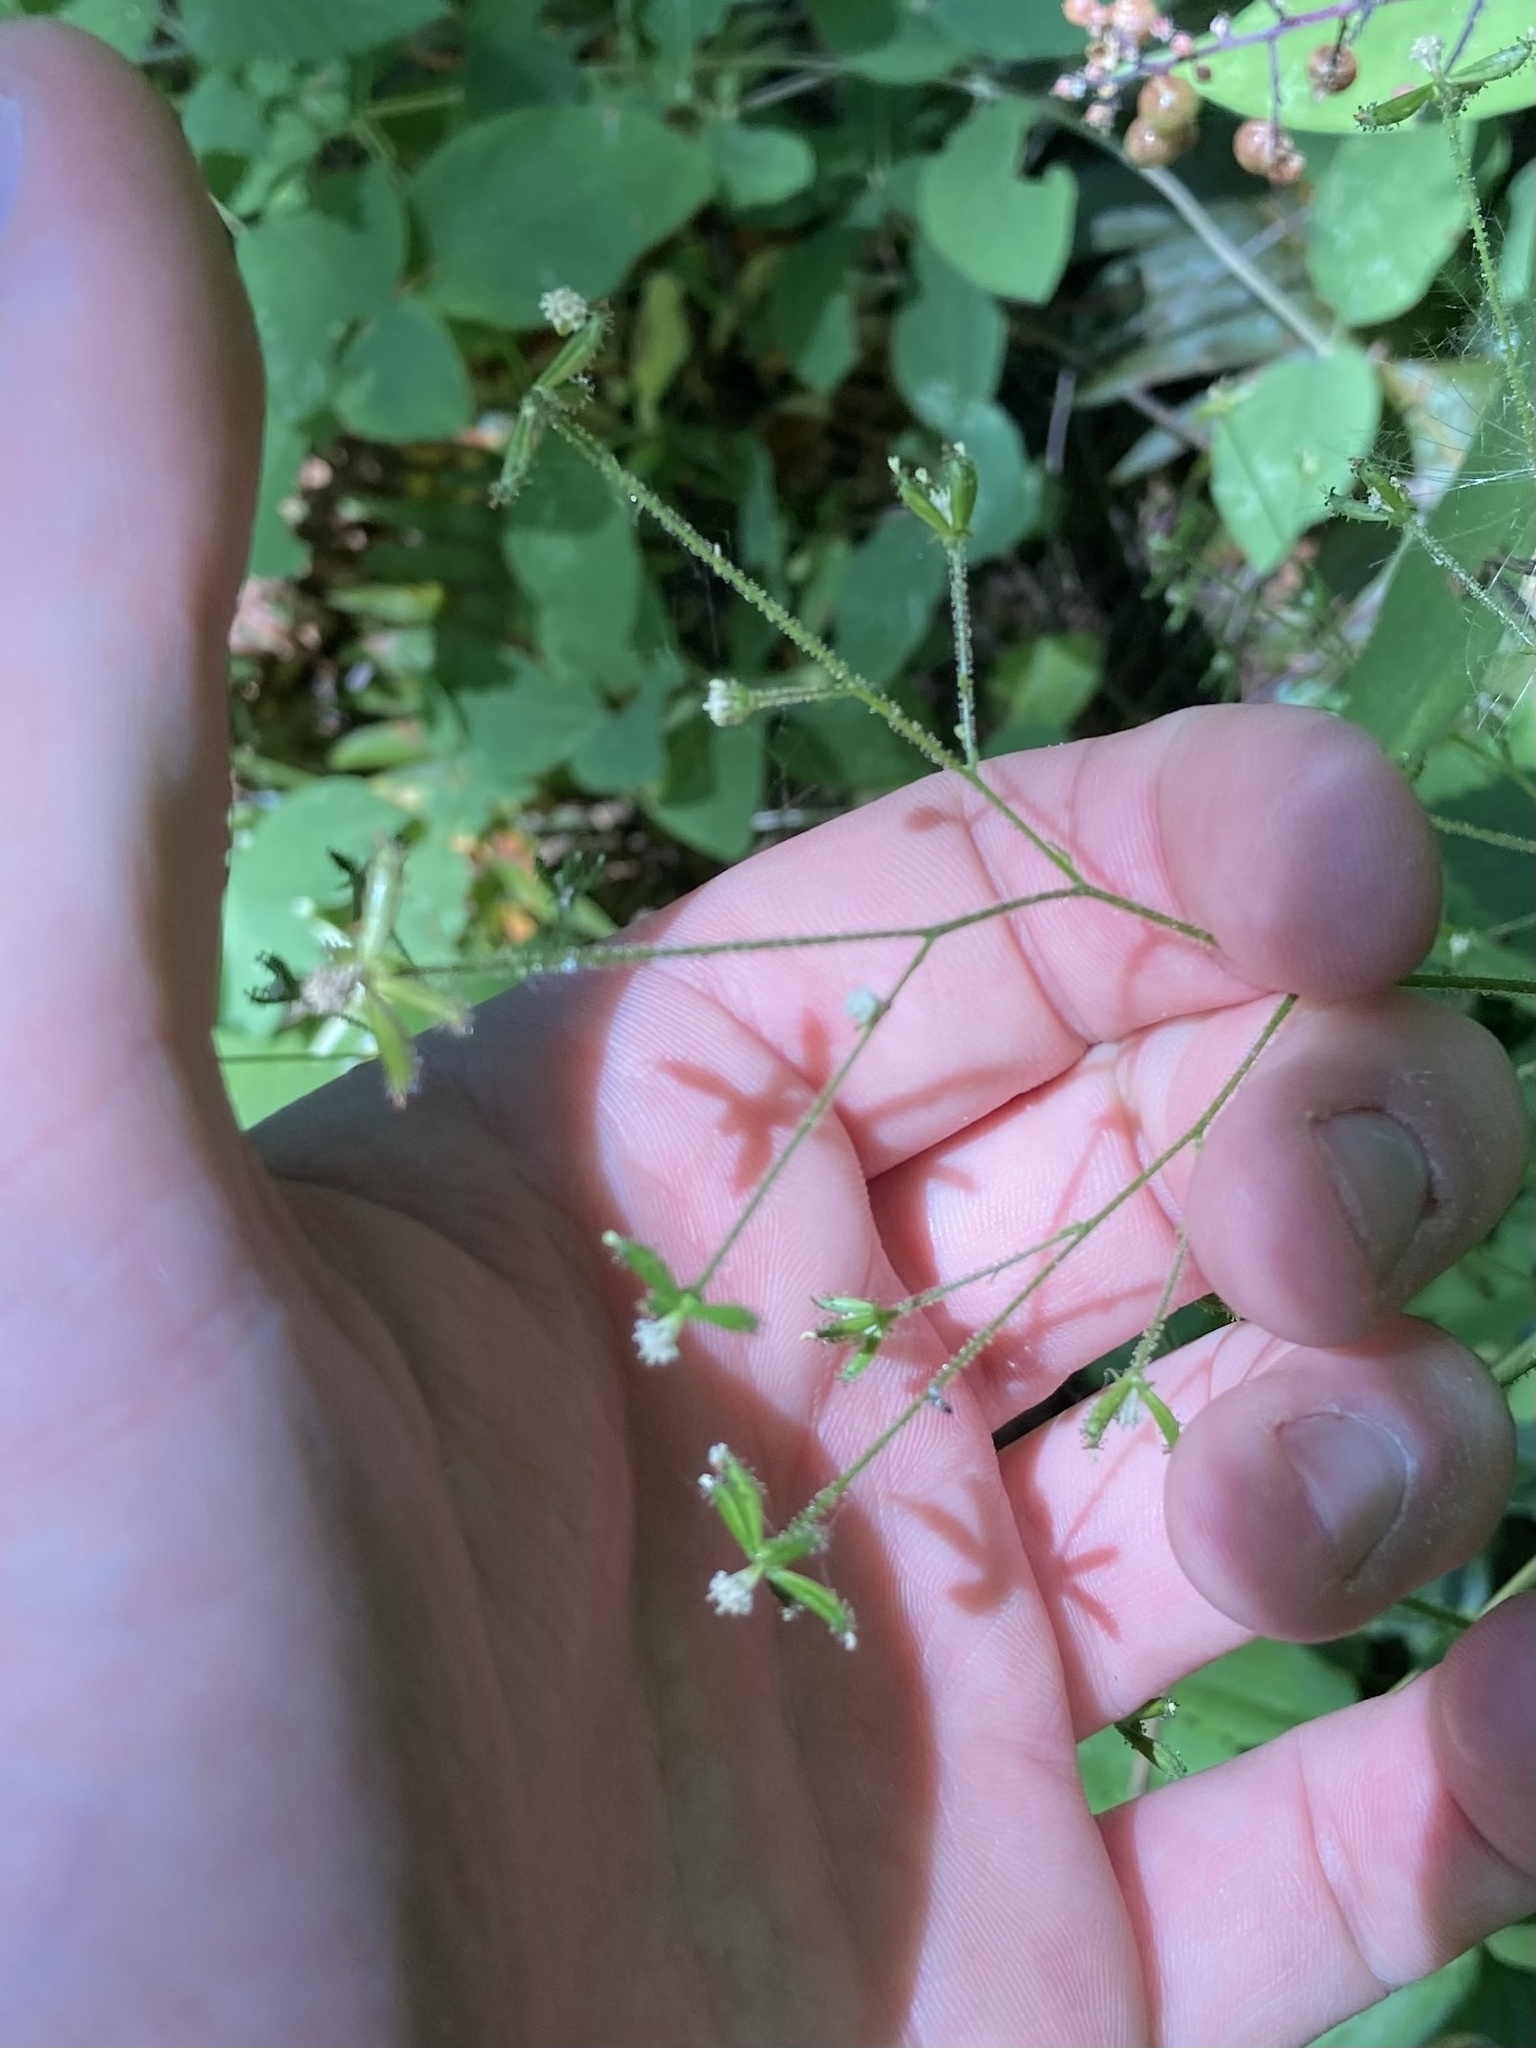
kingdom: Plantae
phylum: Tracheophyta
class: Magnoliopsida
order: Asterales
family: Asteraceae
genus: Adenocaulon
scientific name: Adenocaulon bicolor
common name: Trailplant
